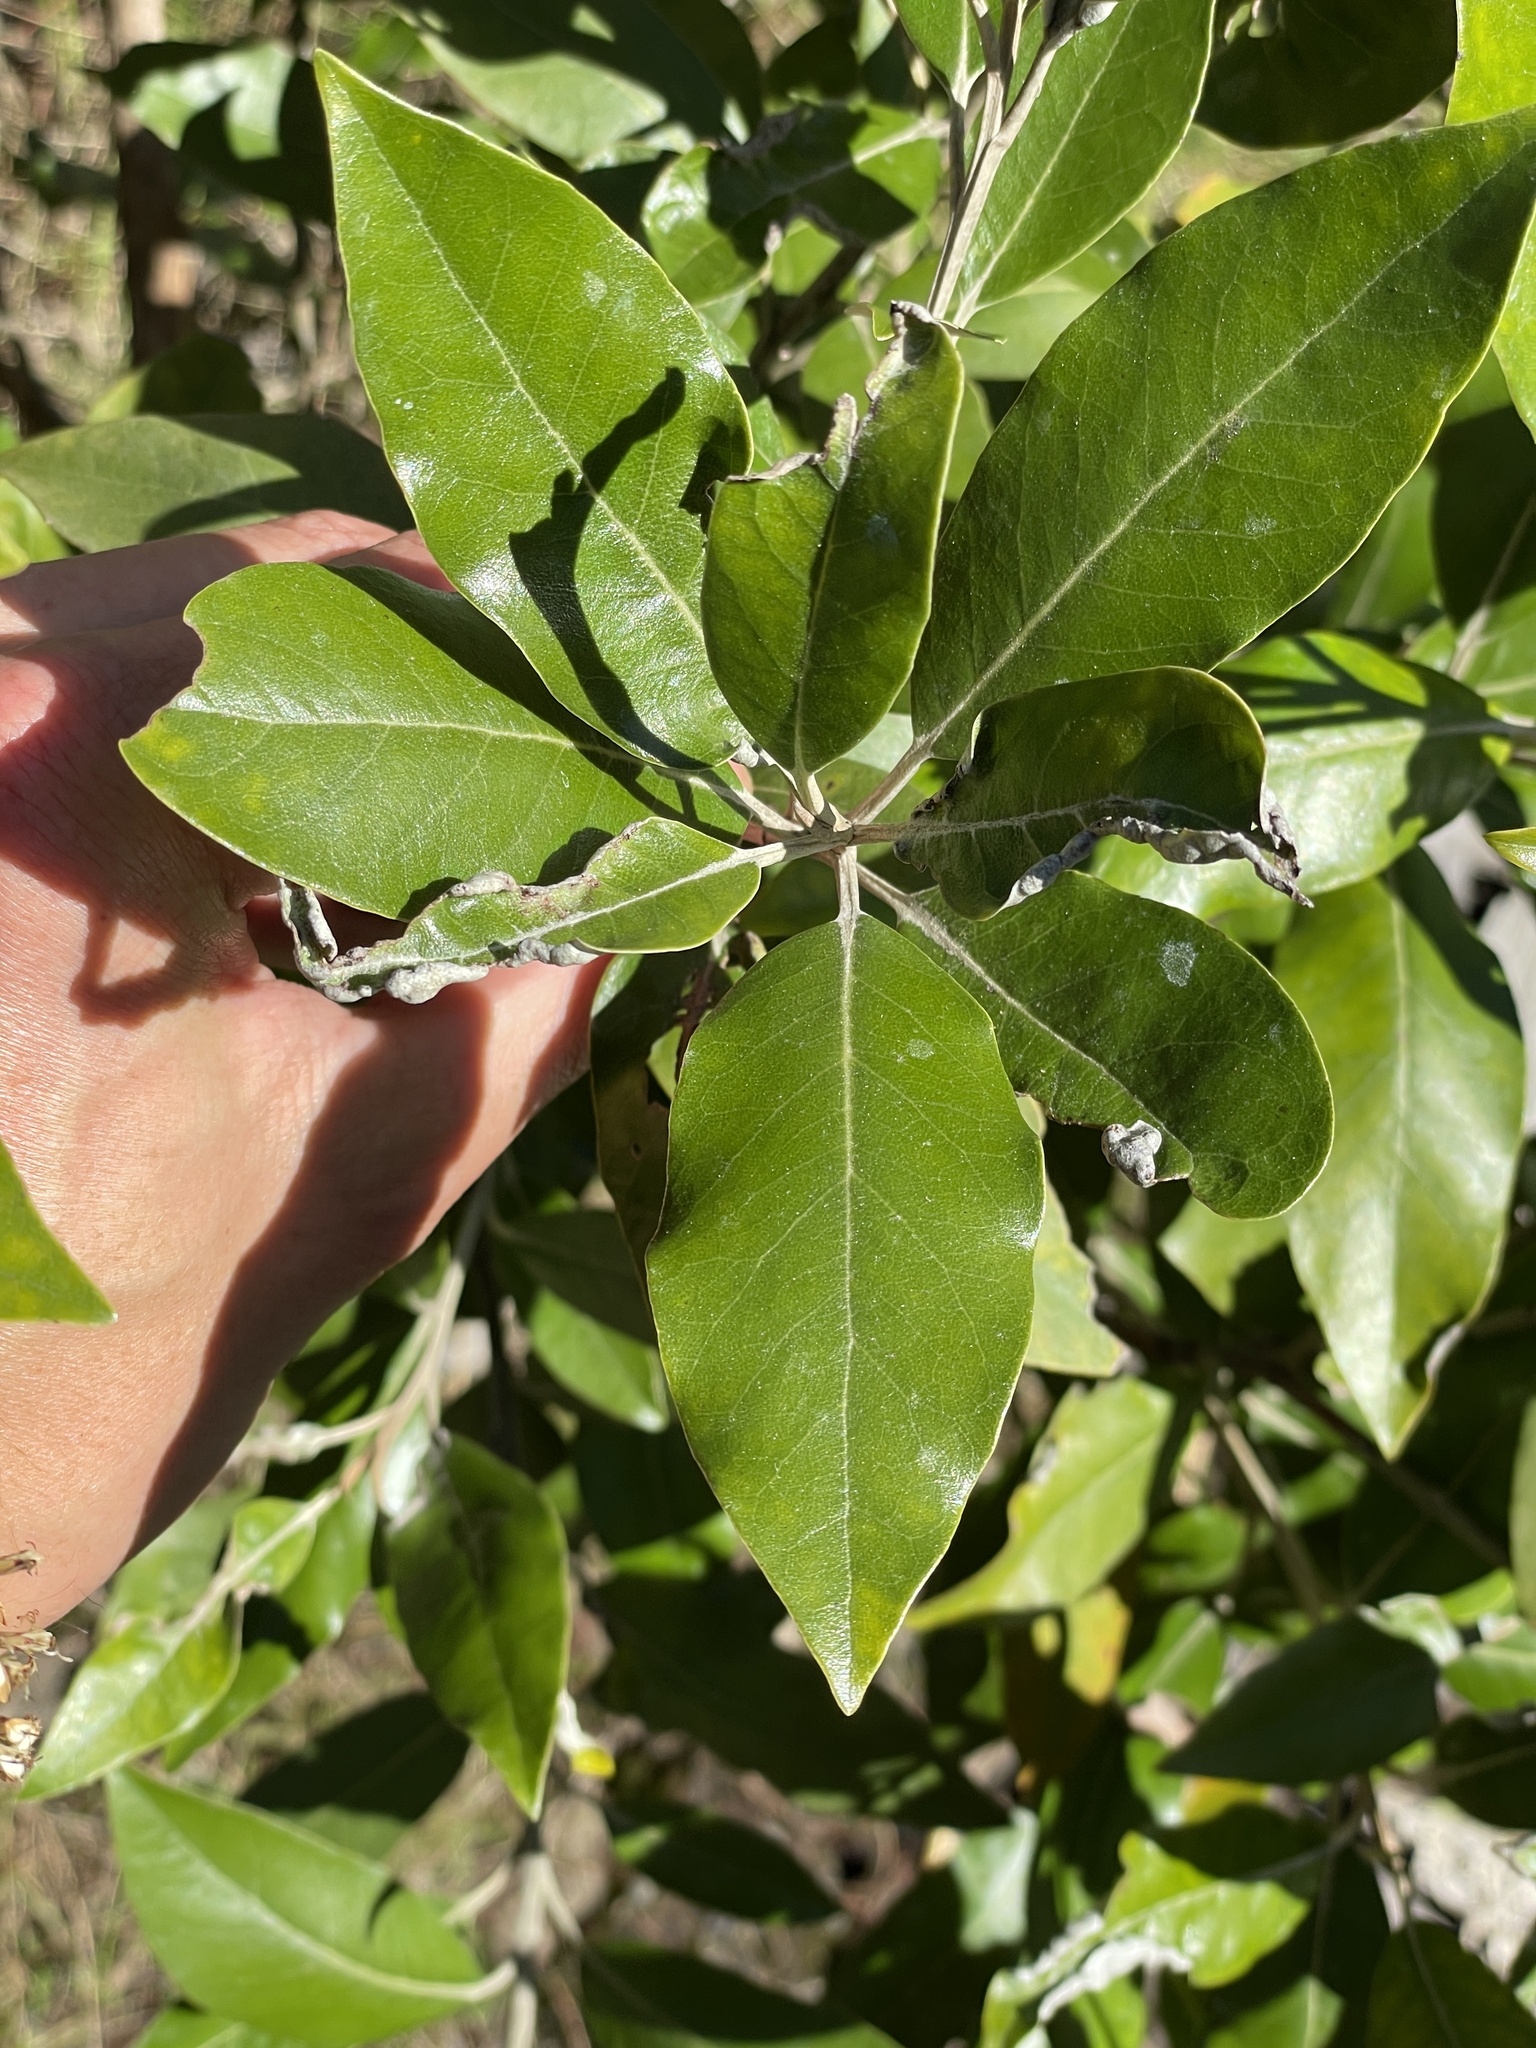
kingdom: Plantae
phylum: Tracheophyta
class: Magnoliopsida
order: Asterales
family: Asteraceae
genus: Olearia
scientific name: Olearia avicenniifolia
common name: Mangrove-leaf daisybush
